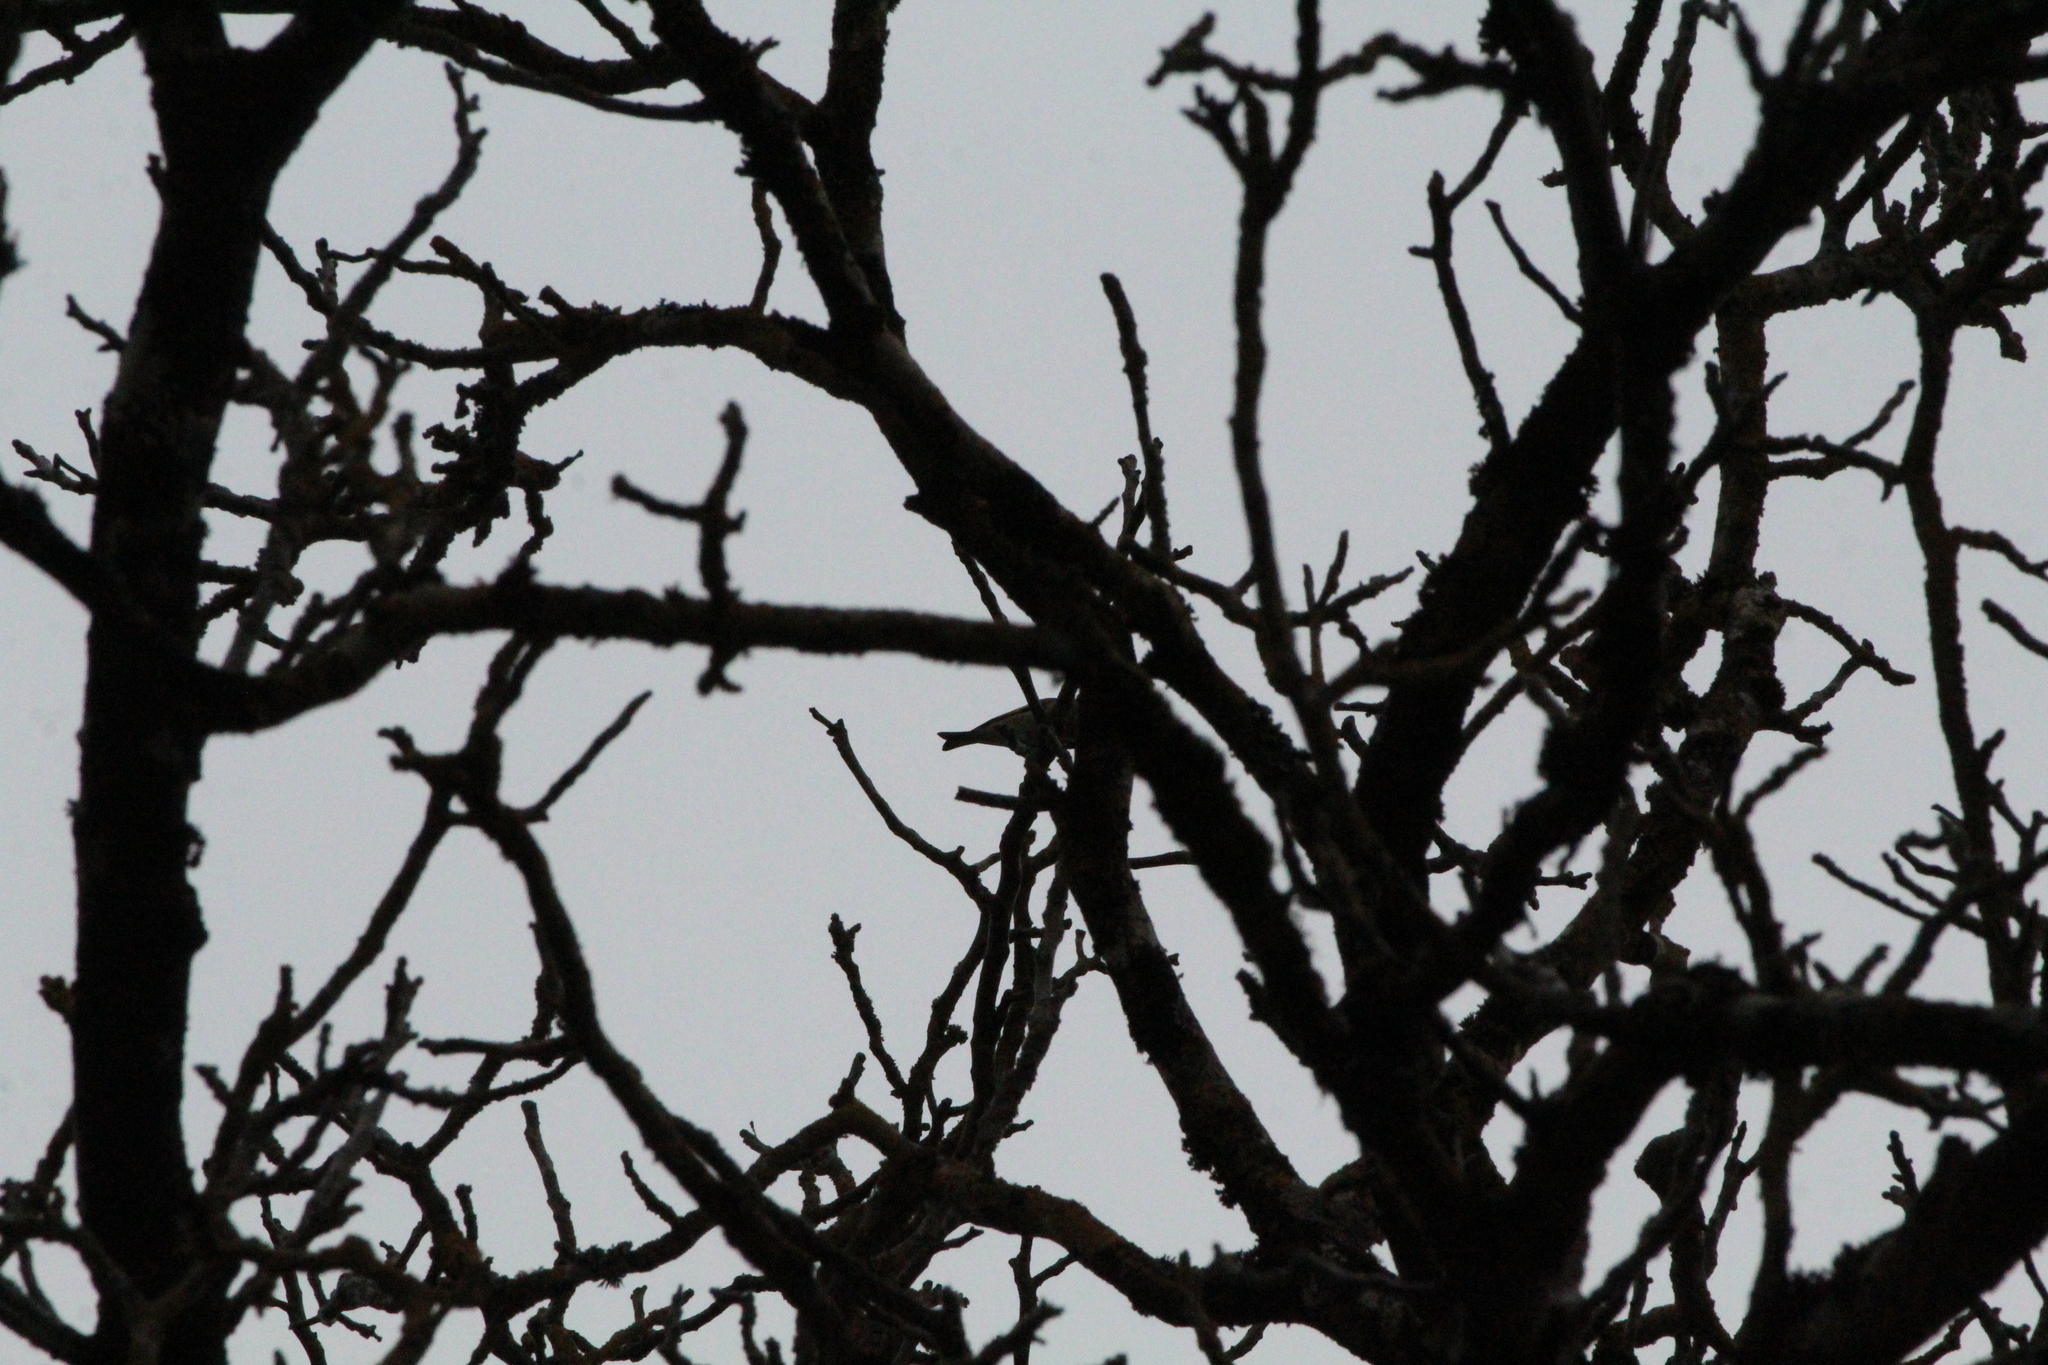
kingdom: Animalia
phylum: Chordata
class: Aves
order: Passeriformes
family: Fringillidae
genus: Carduelis
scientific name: Carduelis carduelis
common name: European goldfinch
